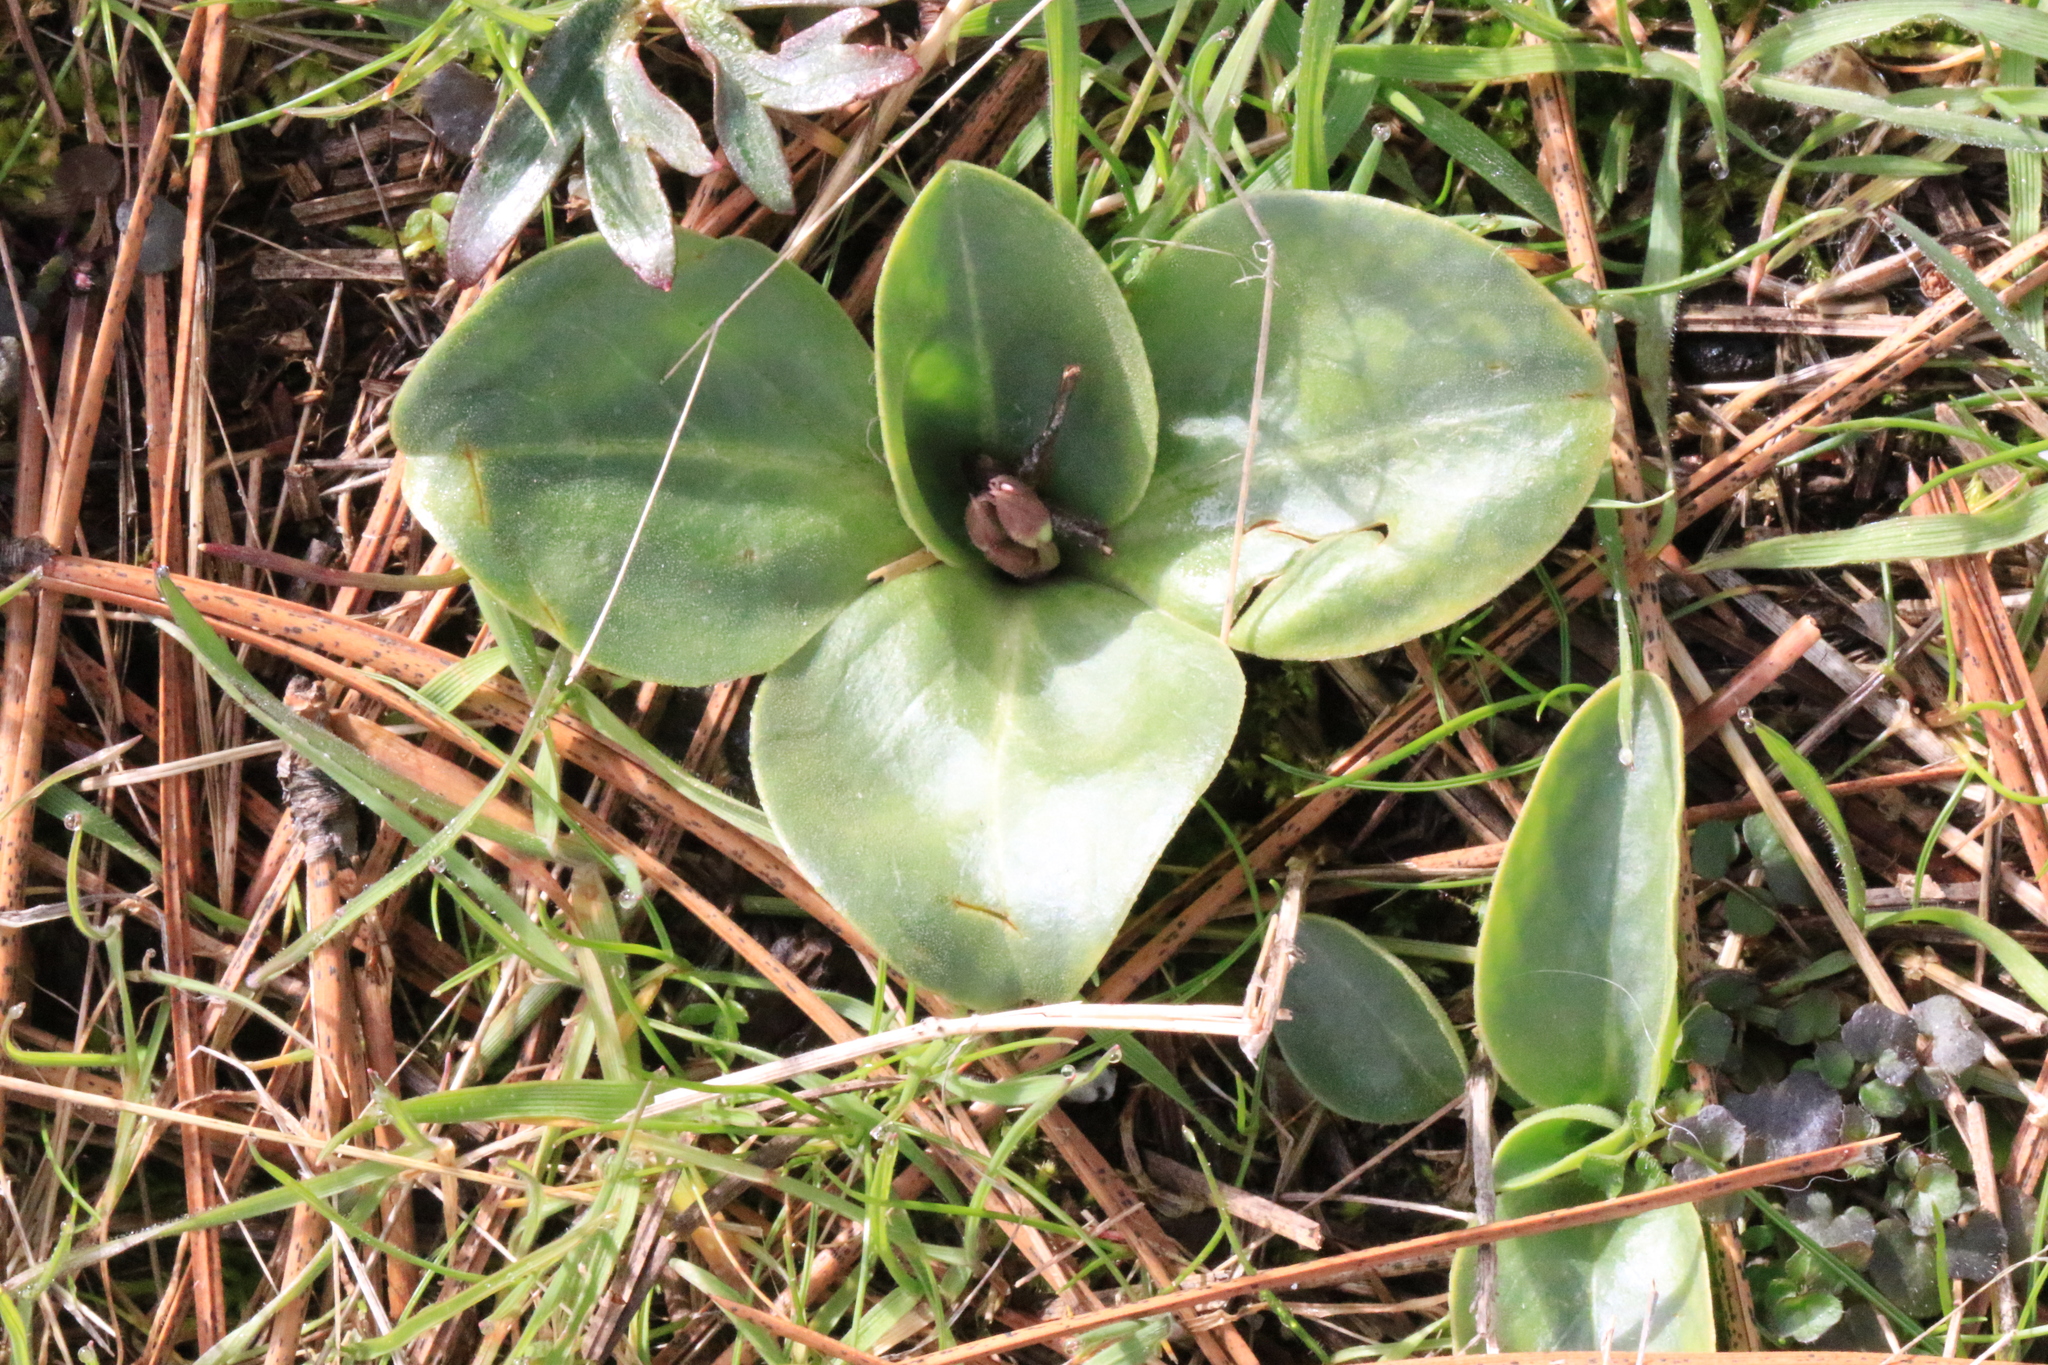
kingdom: Plantae
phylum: Tracheophyta
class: Magnoliopsida
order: Ericales
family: Primulaceae
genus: Dodecatheon
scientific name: Dodecatheon hendersonii
